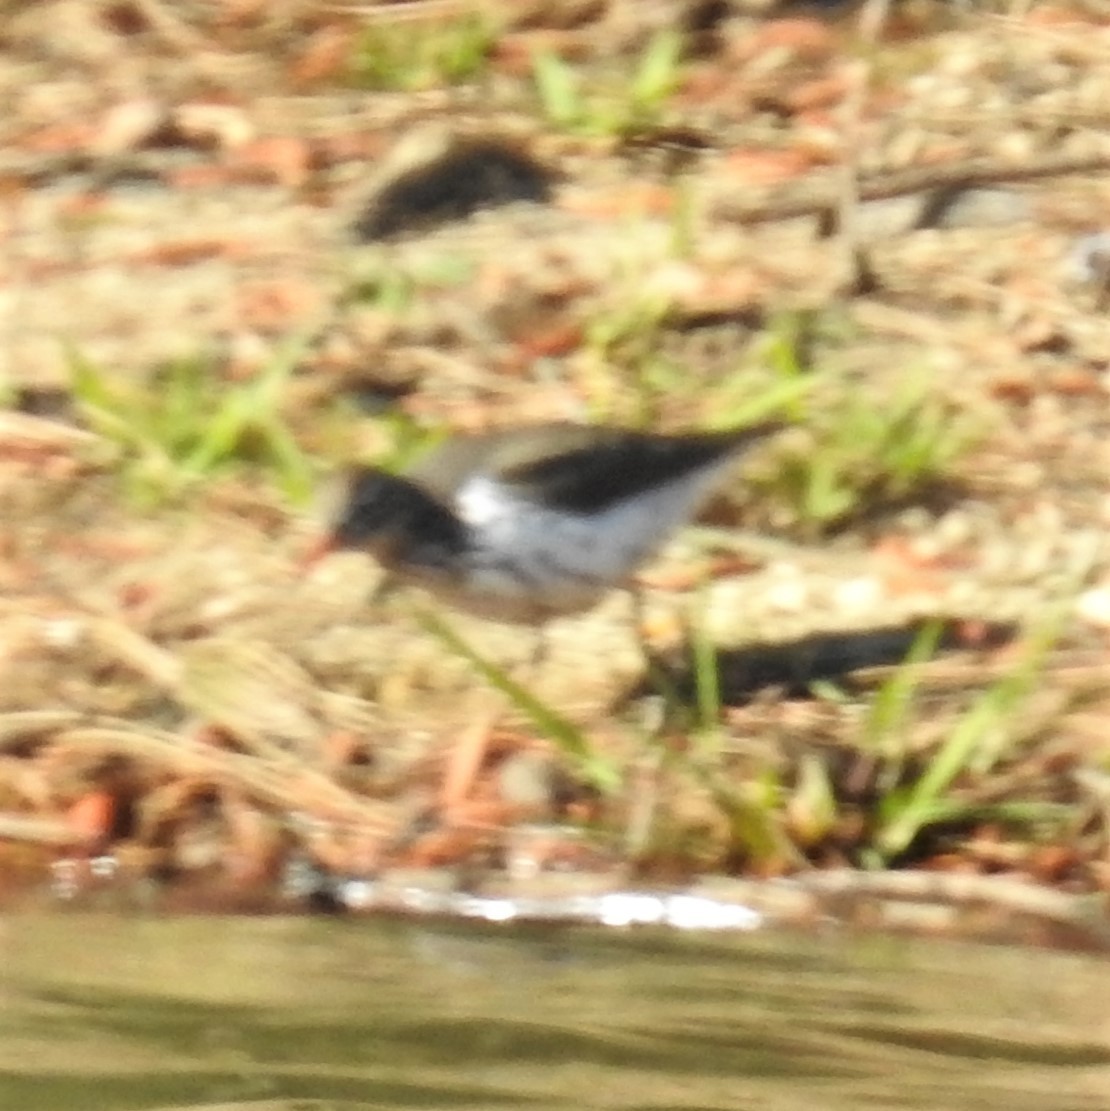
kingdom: Animalia
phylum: Chordata
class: Aves
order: Charadriiformes
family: Scolopacidae
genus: Actitis
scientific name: Actitis macularius
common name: Spotted sandpiper
